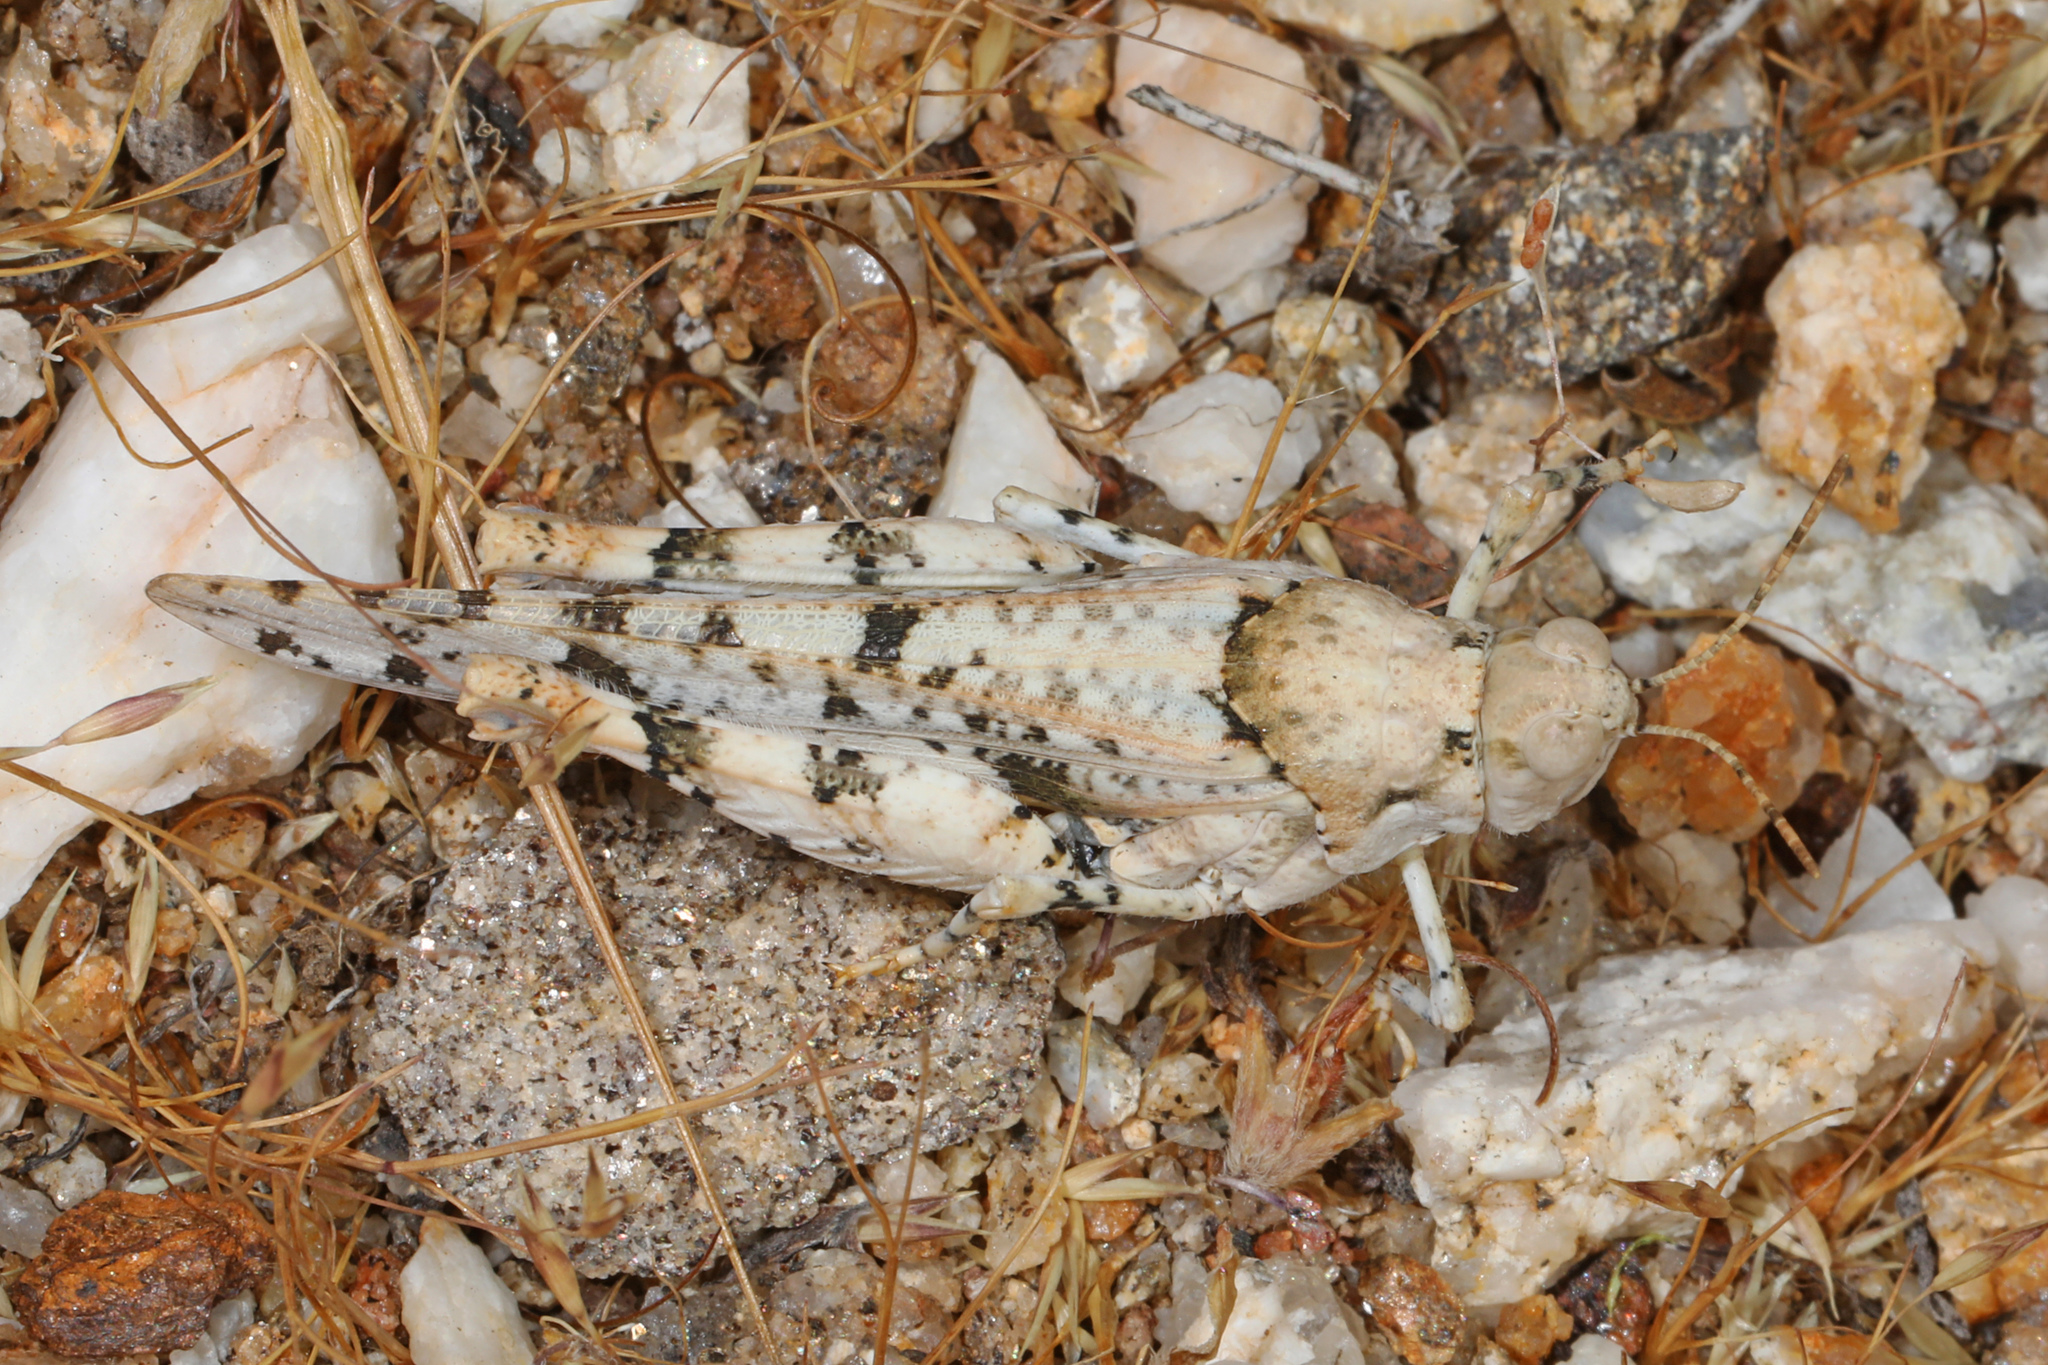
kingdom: Animalia
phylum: Arthropoda
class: Insecta
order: Orthoptera
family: Acrididae
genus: Cibolacris
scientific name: Cibolacris parviceps
